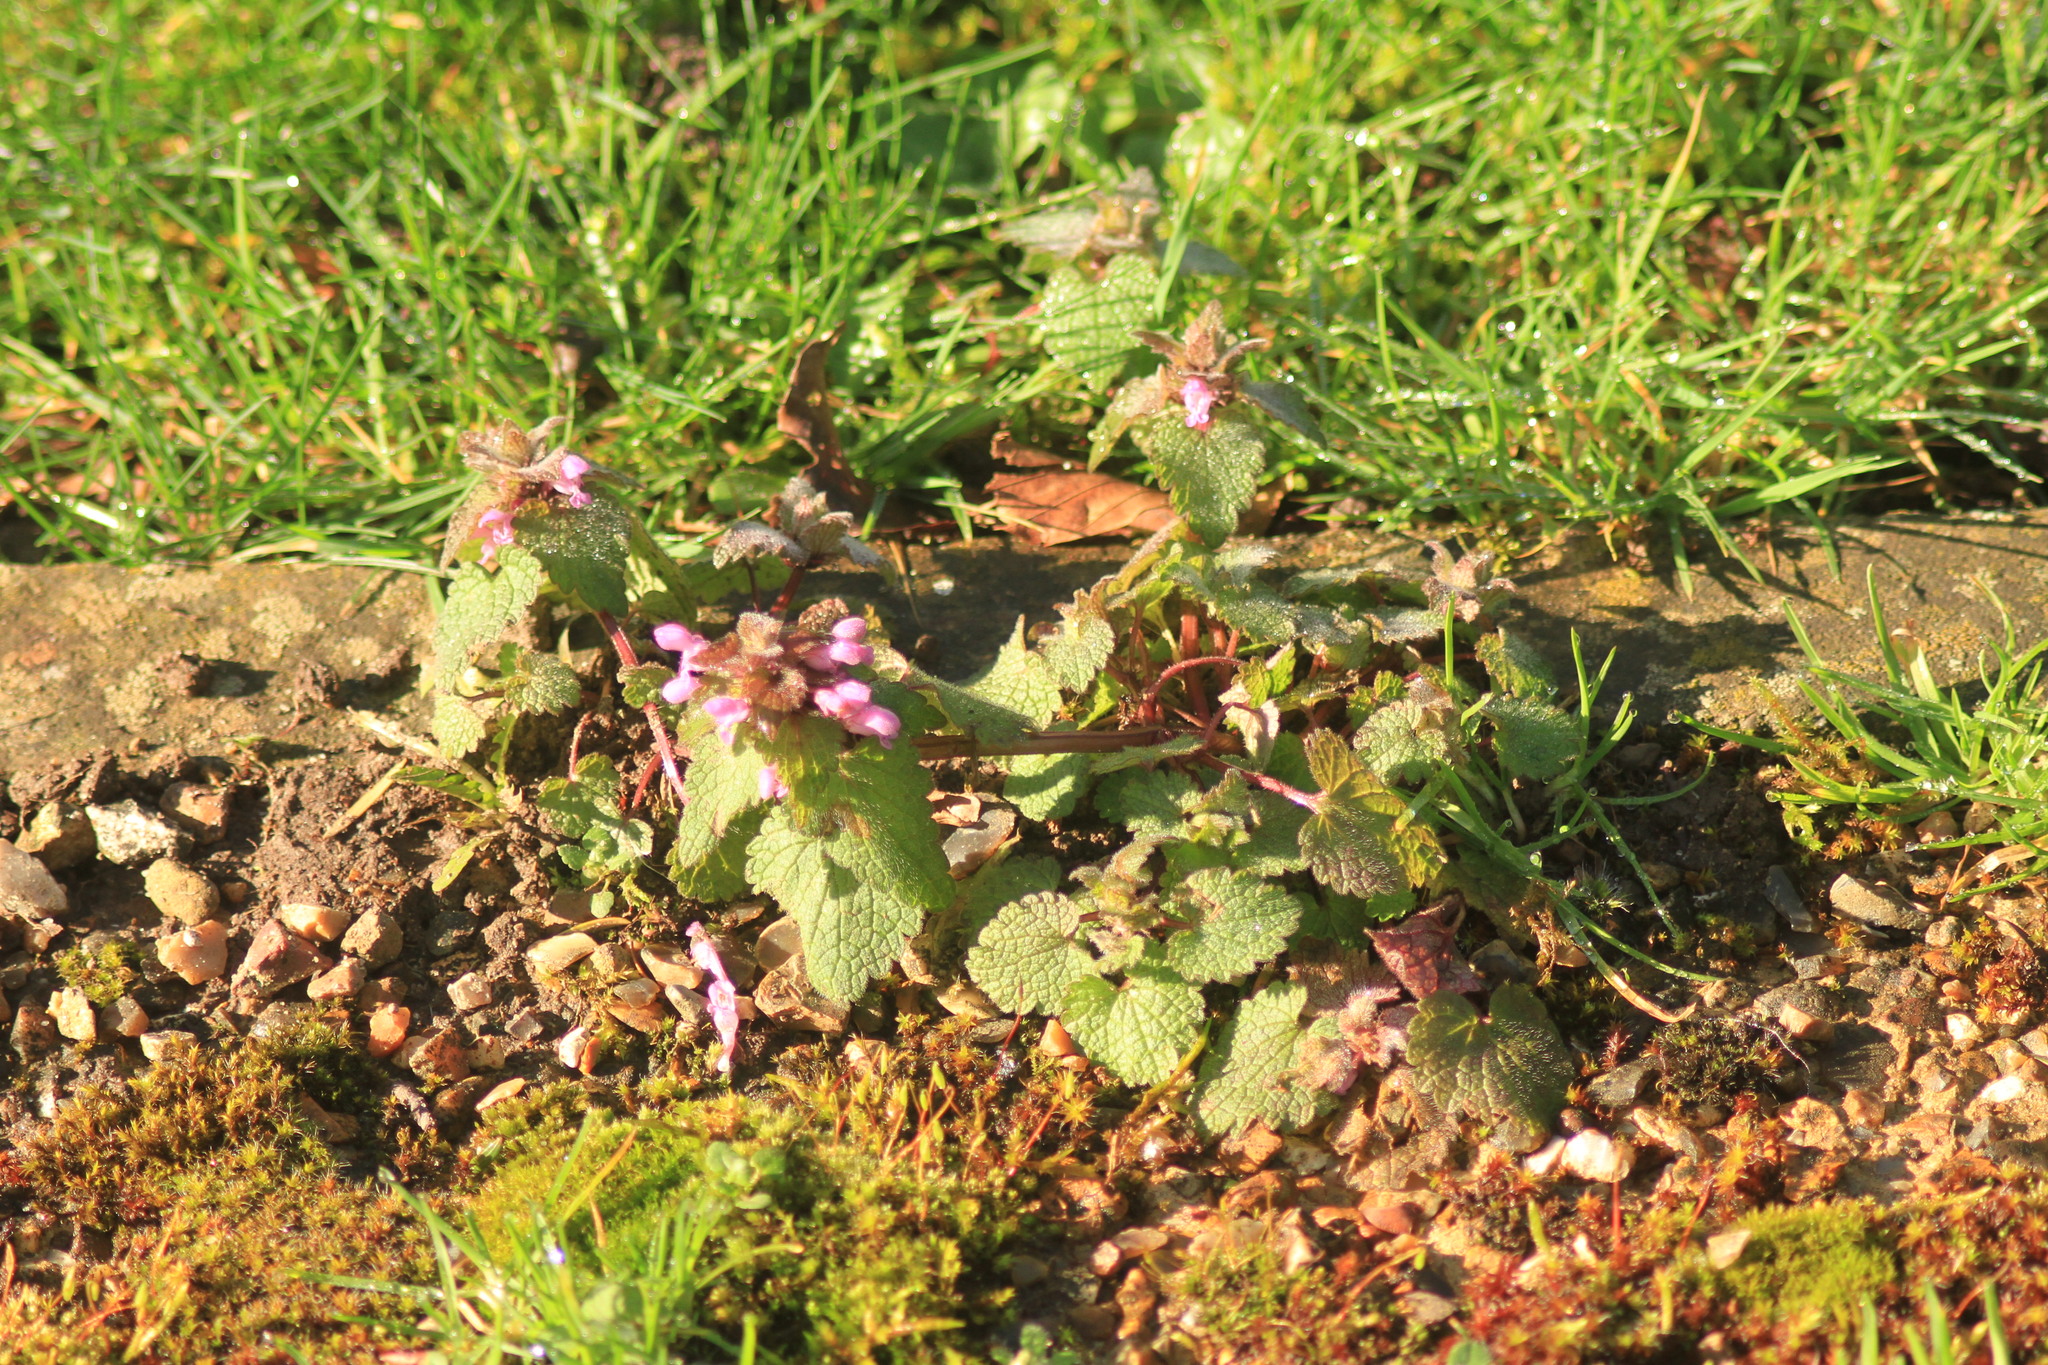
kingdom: Plantae
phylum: Tracheophyta
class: Magnoliopsida
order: Lamiales
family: Lamiaceae
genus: Lamium
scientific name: Lamium purpureum
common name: Red dead-nettle
